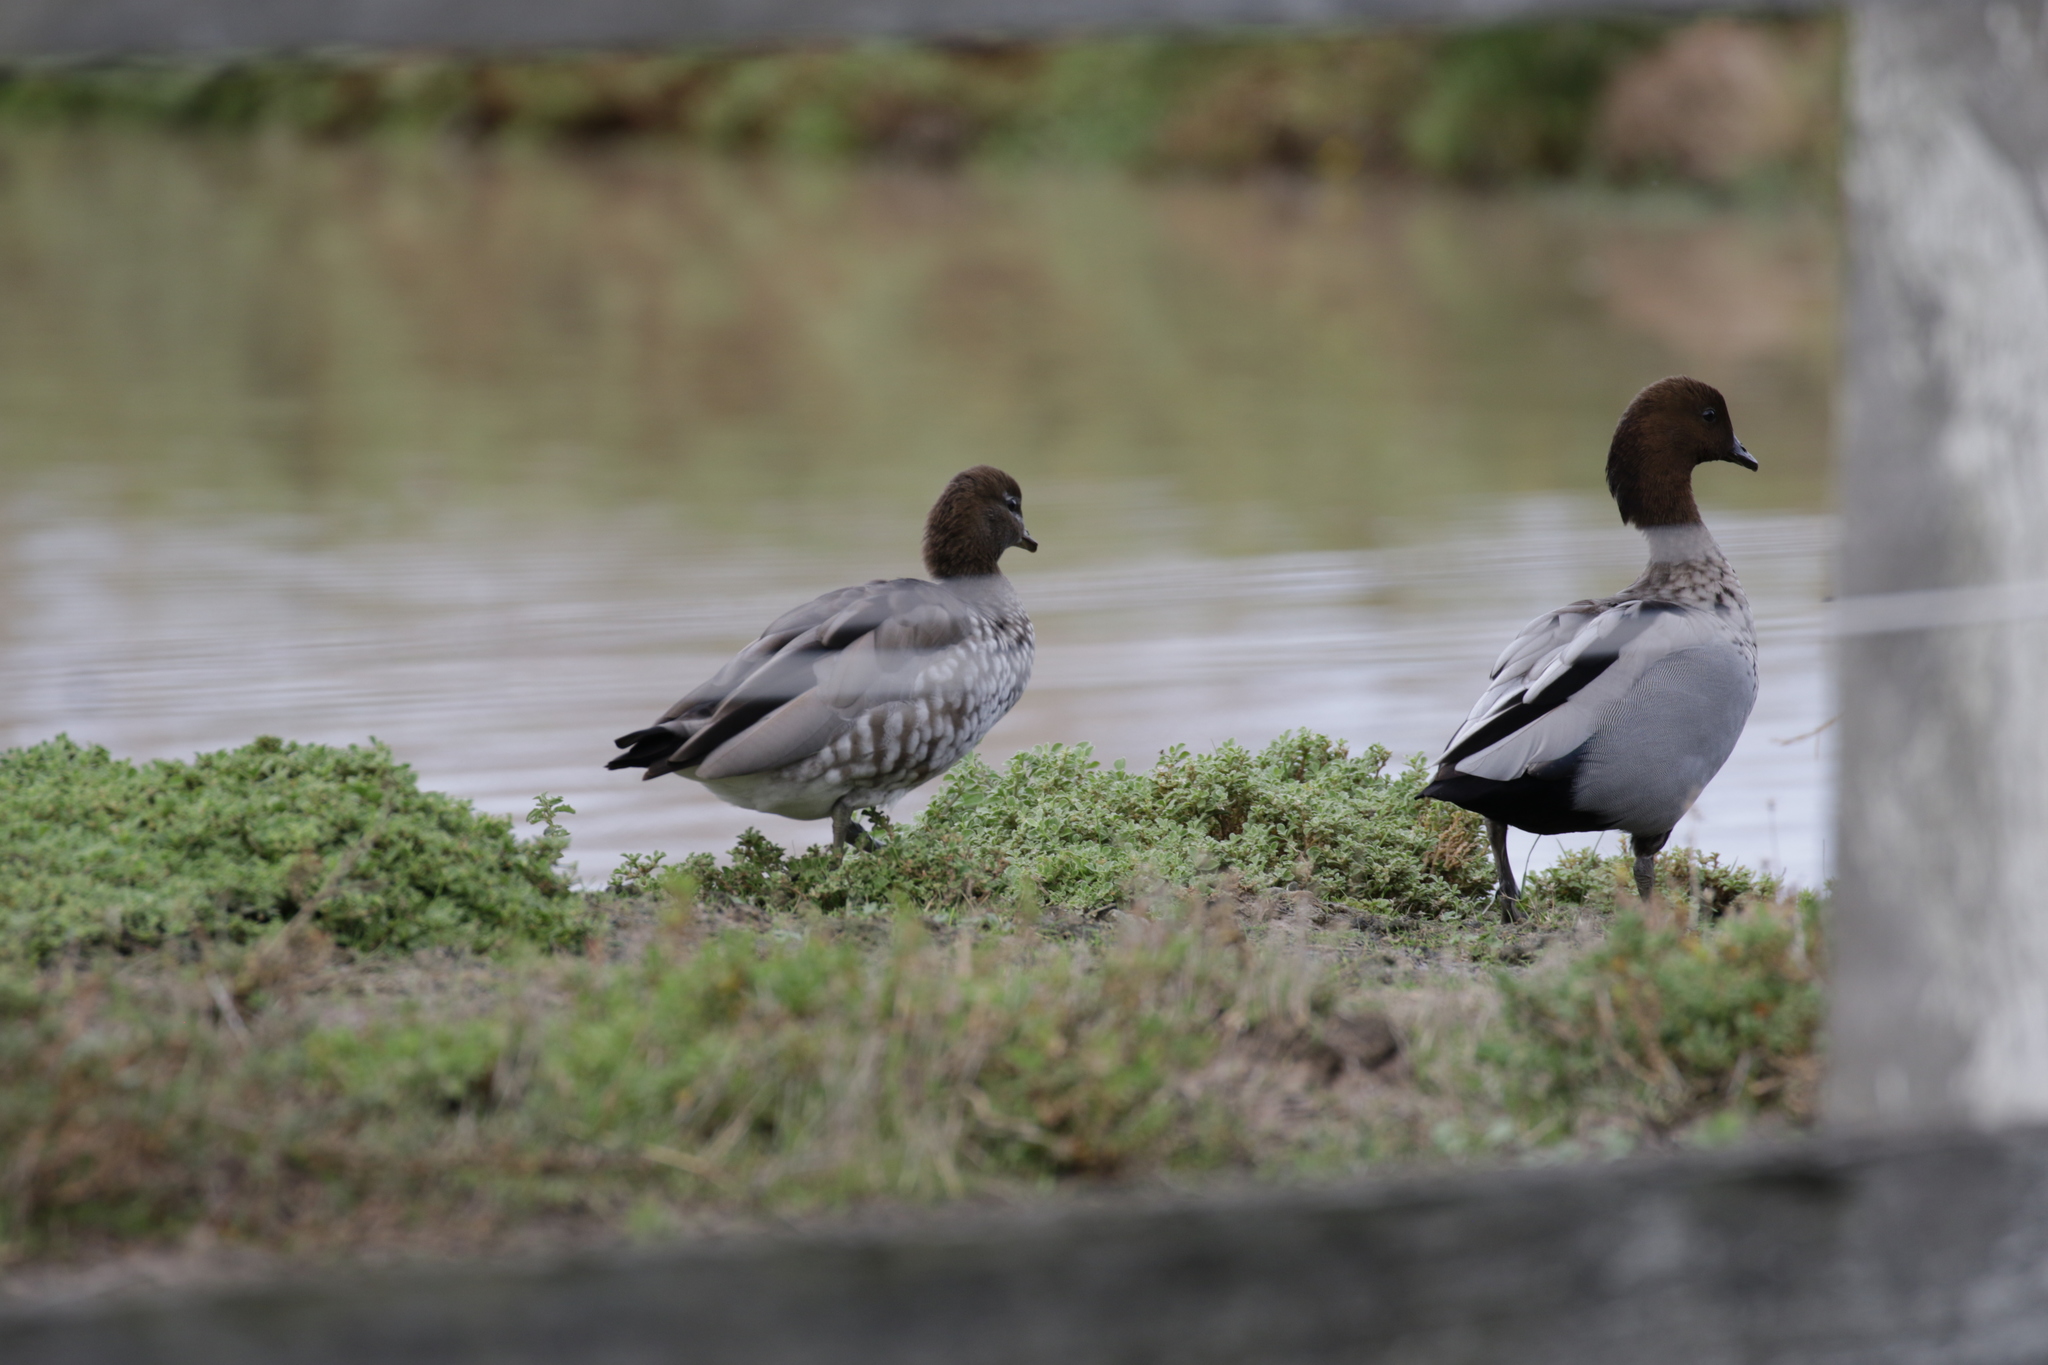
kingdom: Animalia
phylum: Chordata
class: Aves
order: Anseriformes
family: Anatidae
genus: Chenonetta
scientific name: Chenonetta jubata
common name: Maned duck
